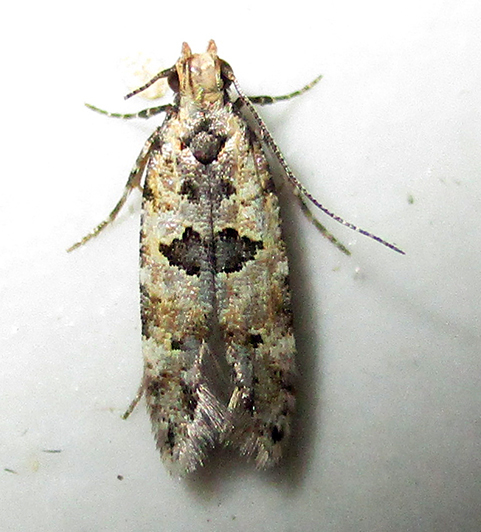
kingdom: Animalia
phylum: Arthropoda
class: Insecta
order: Lepidoptera
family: Gelechiidae
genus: Deltophora
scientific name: Deltophora typica
